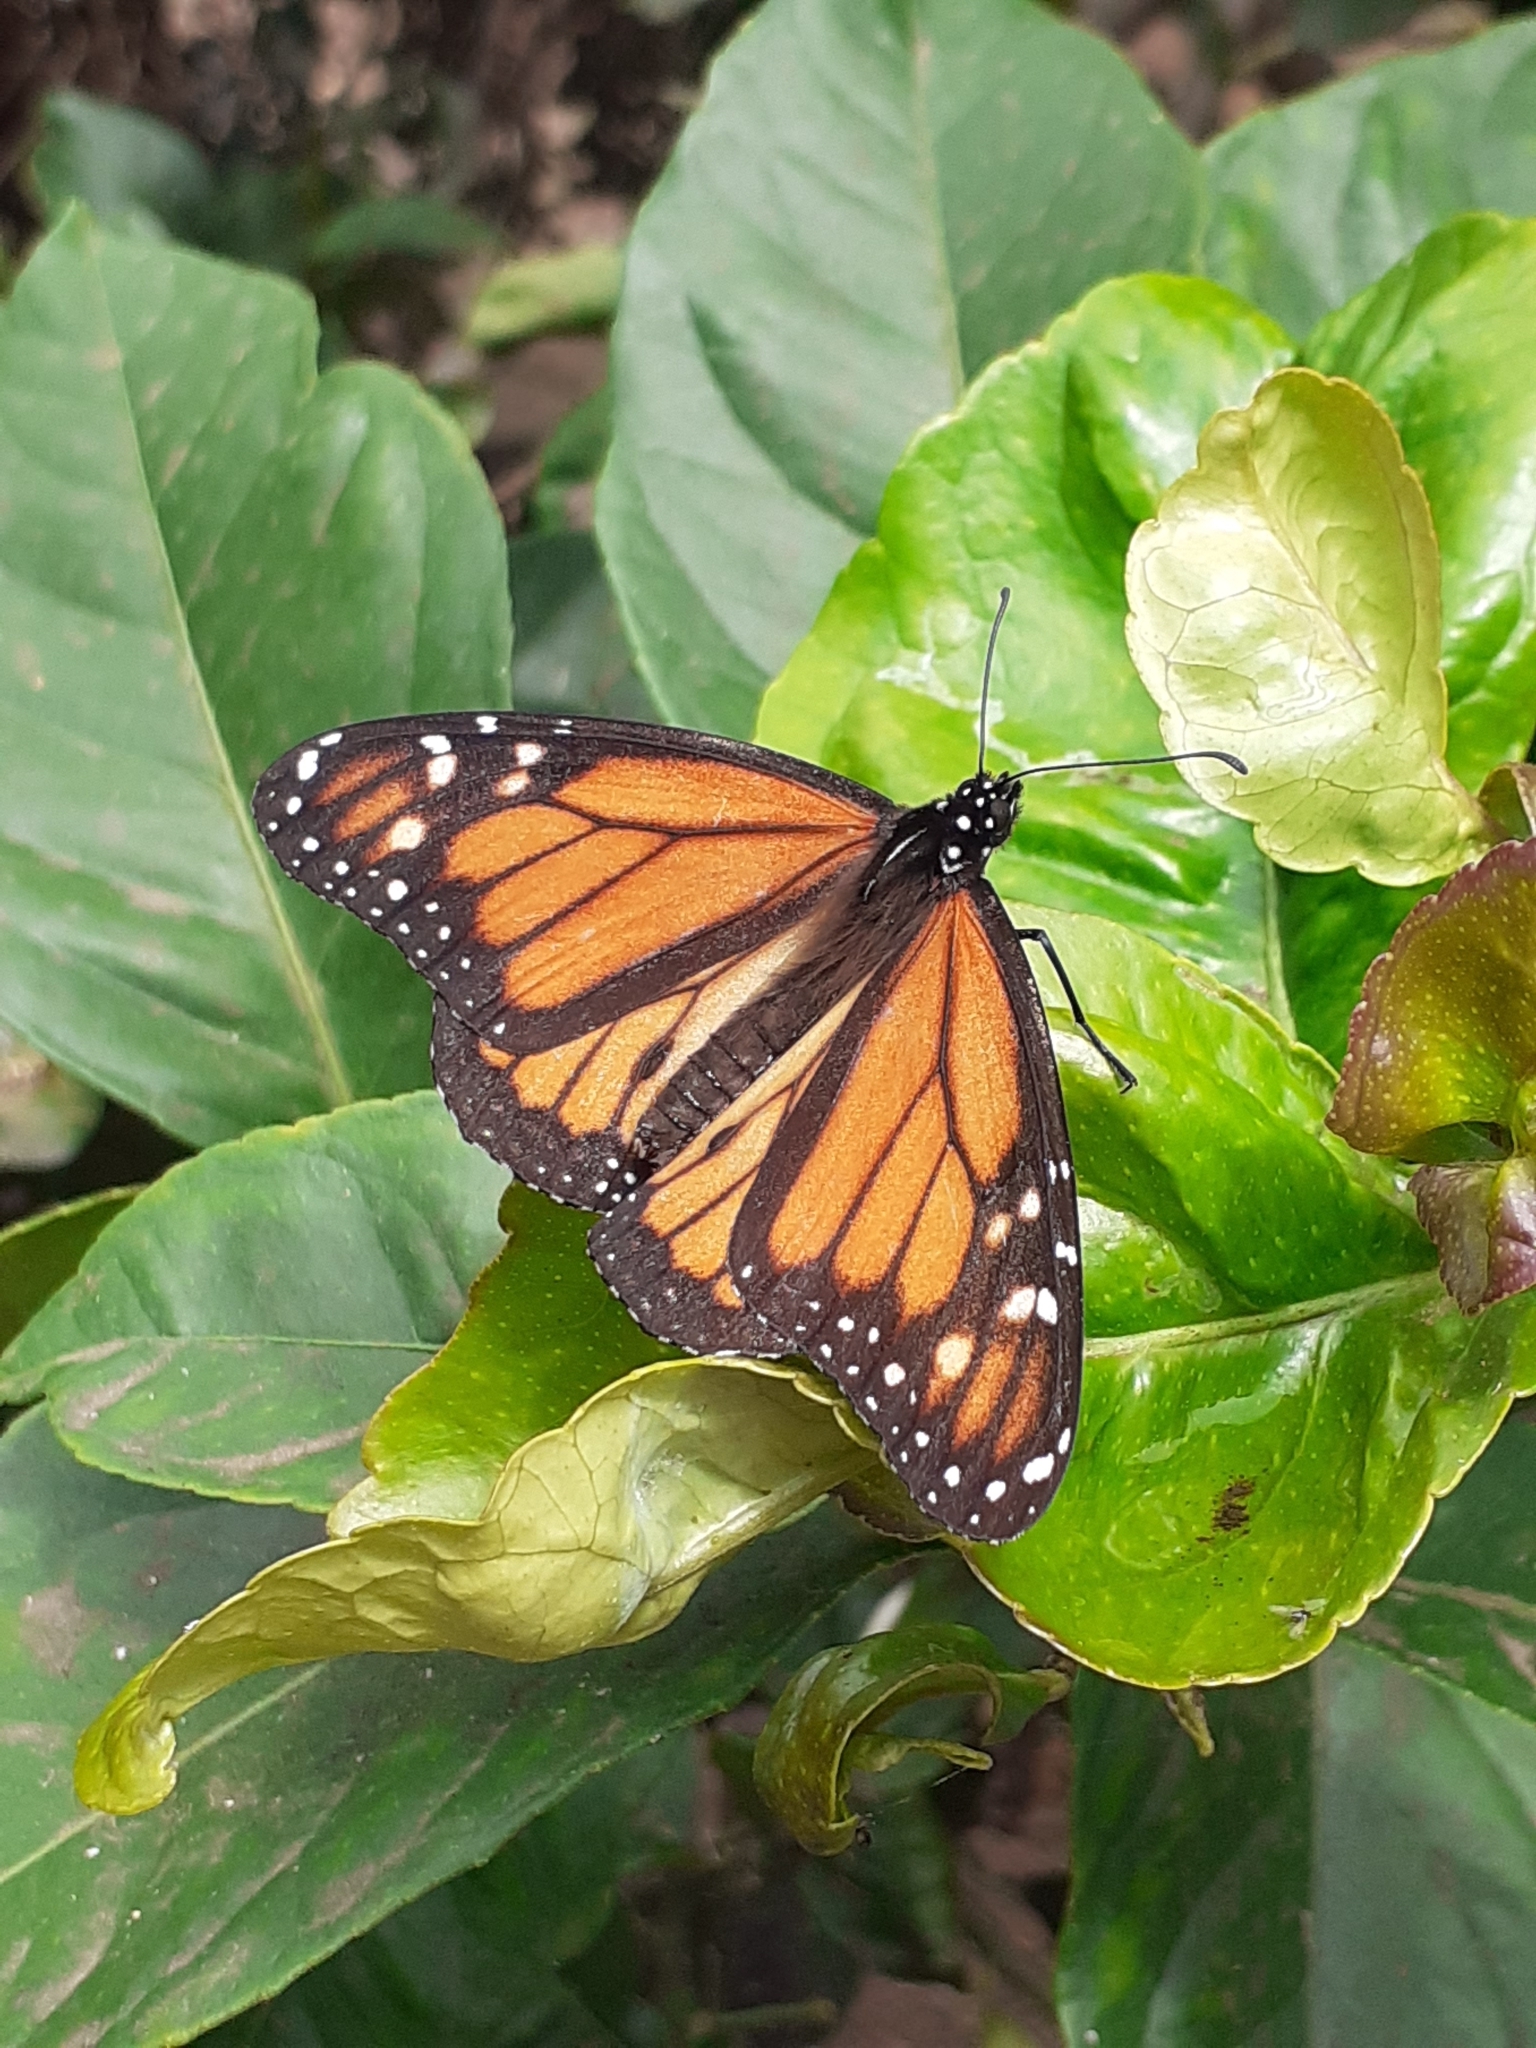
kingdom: Animalia
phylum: Arthropoda
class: Insecta
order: Lepidoptera
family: Nymphalidae
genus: Danaus
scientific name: Danaus plexippus
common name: Monarch
